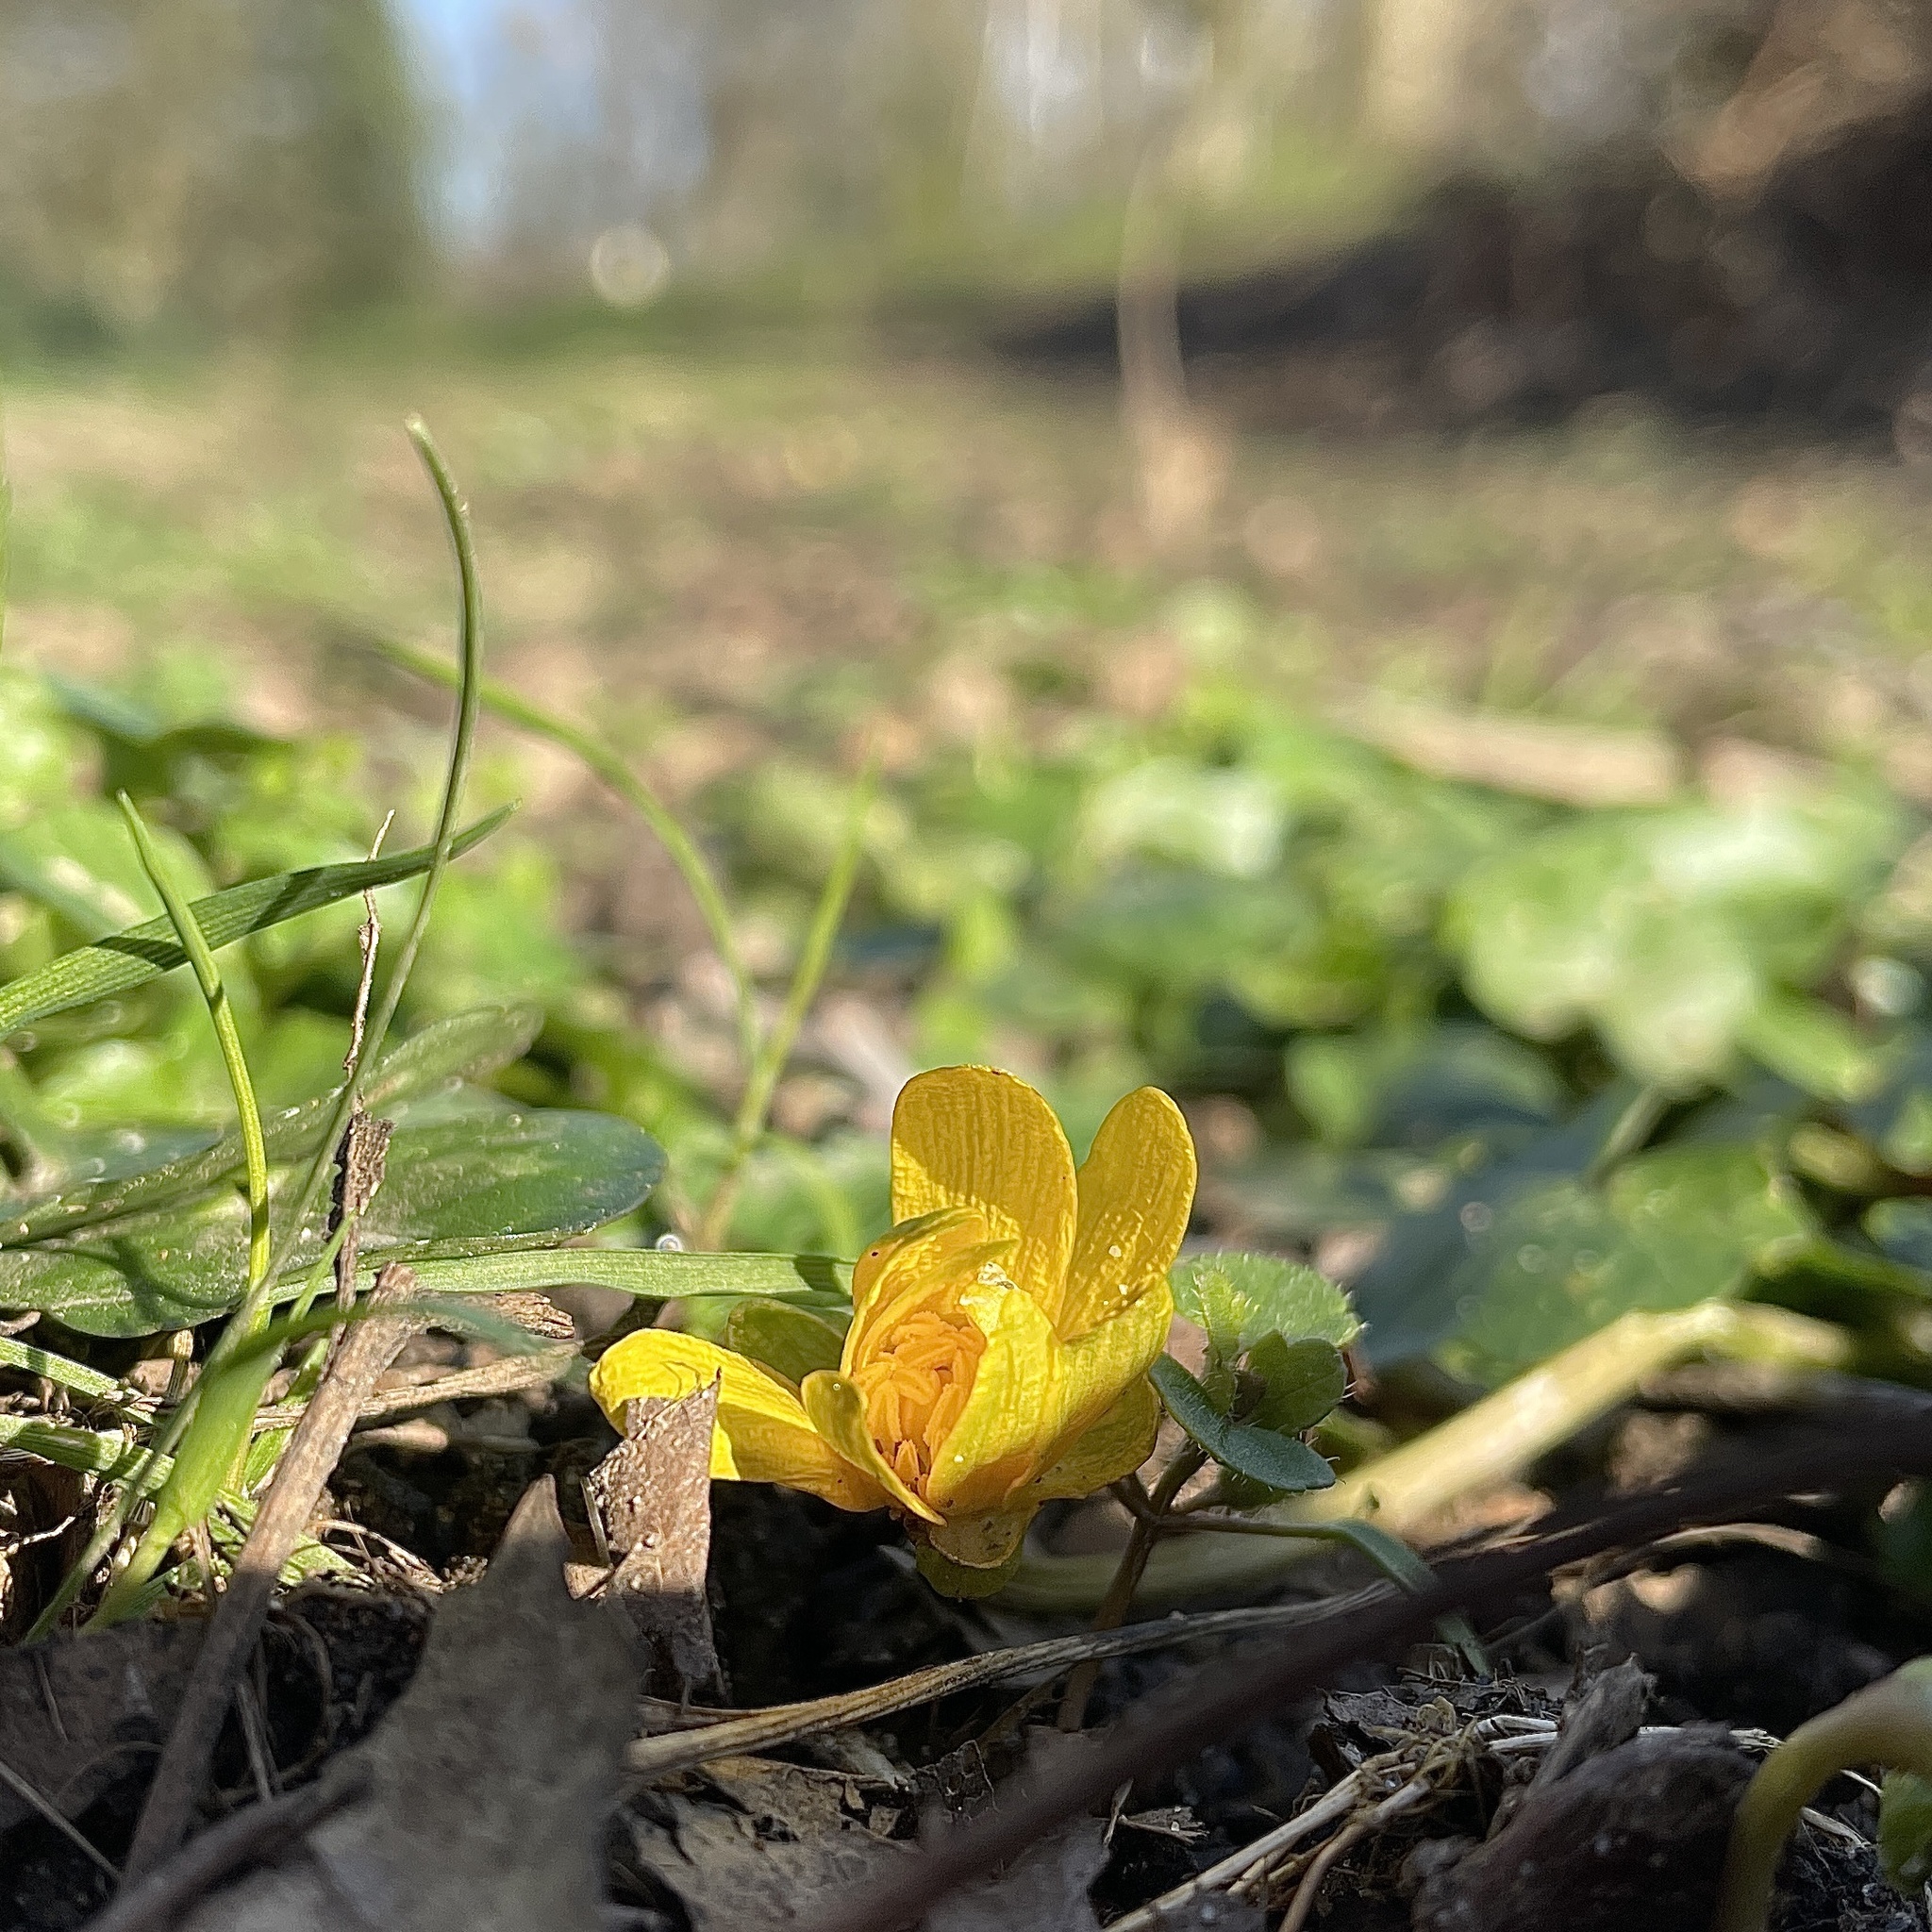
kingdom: Plantae
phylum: Tracheophyta
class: Magnoliopsida
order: Ranunculales
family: Ranunculaceae
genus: Ficaria
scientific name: Ficaria verna
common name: Lesser celandine
